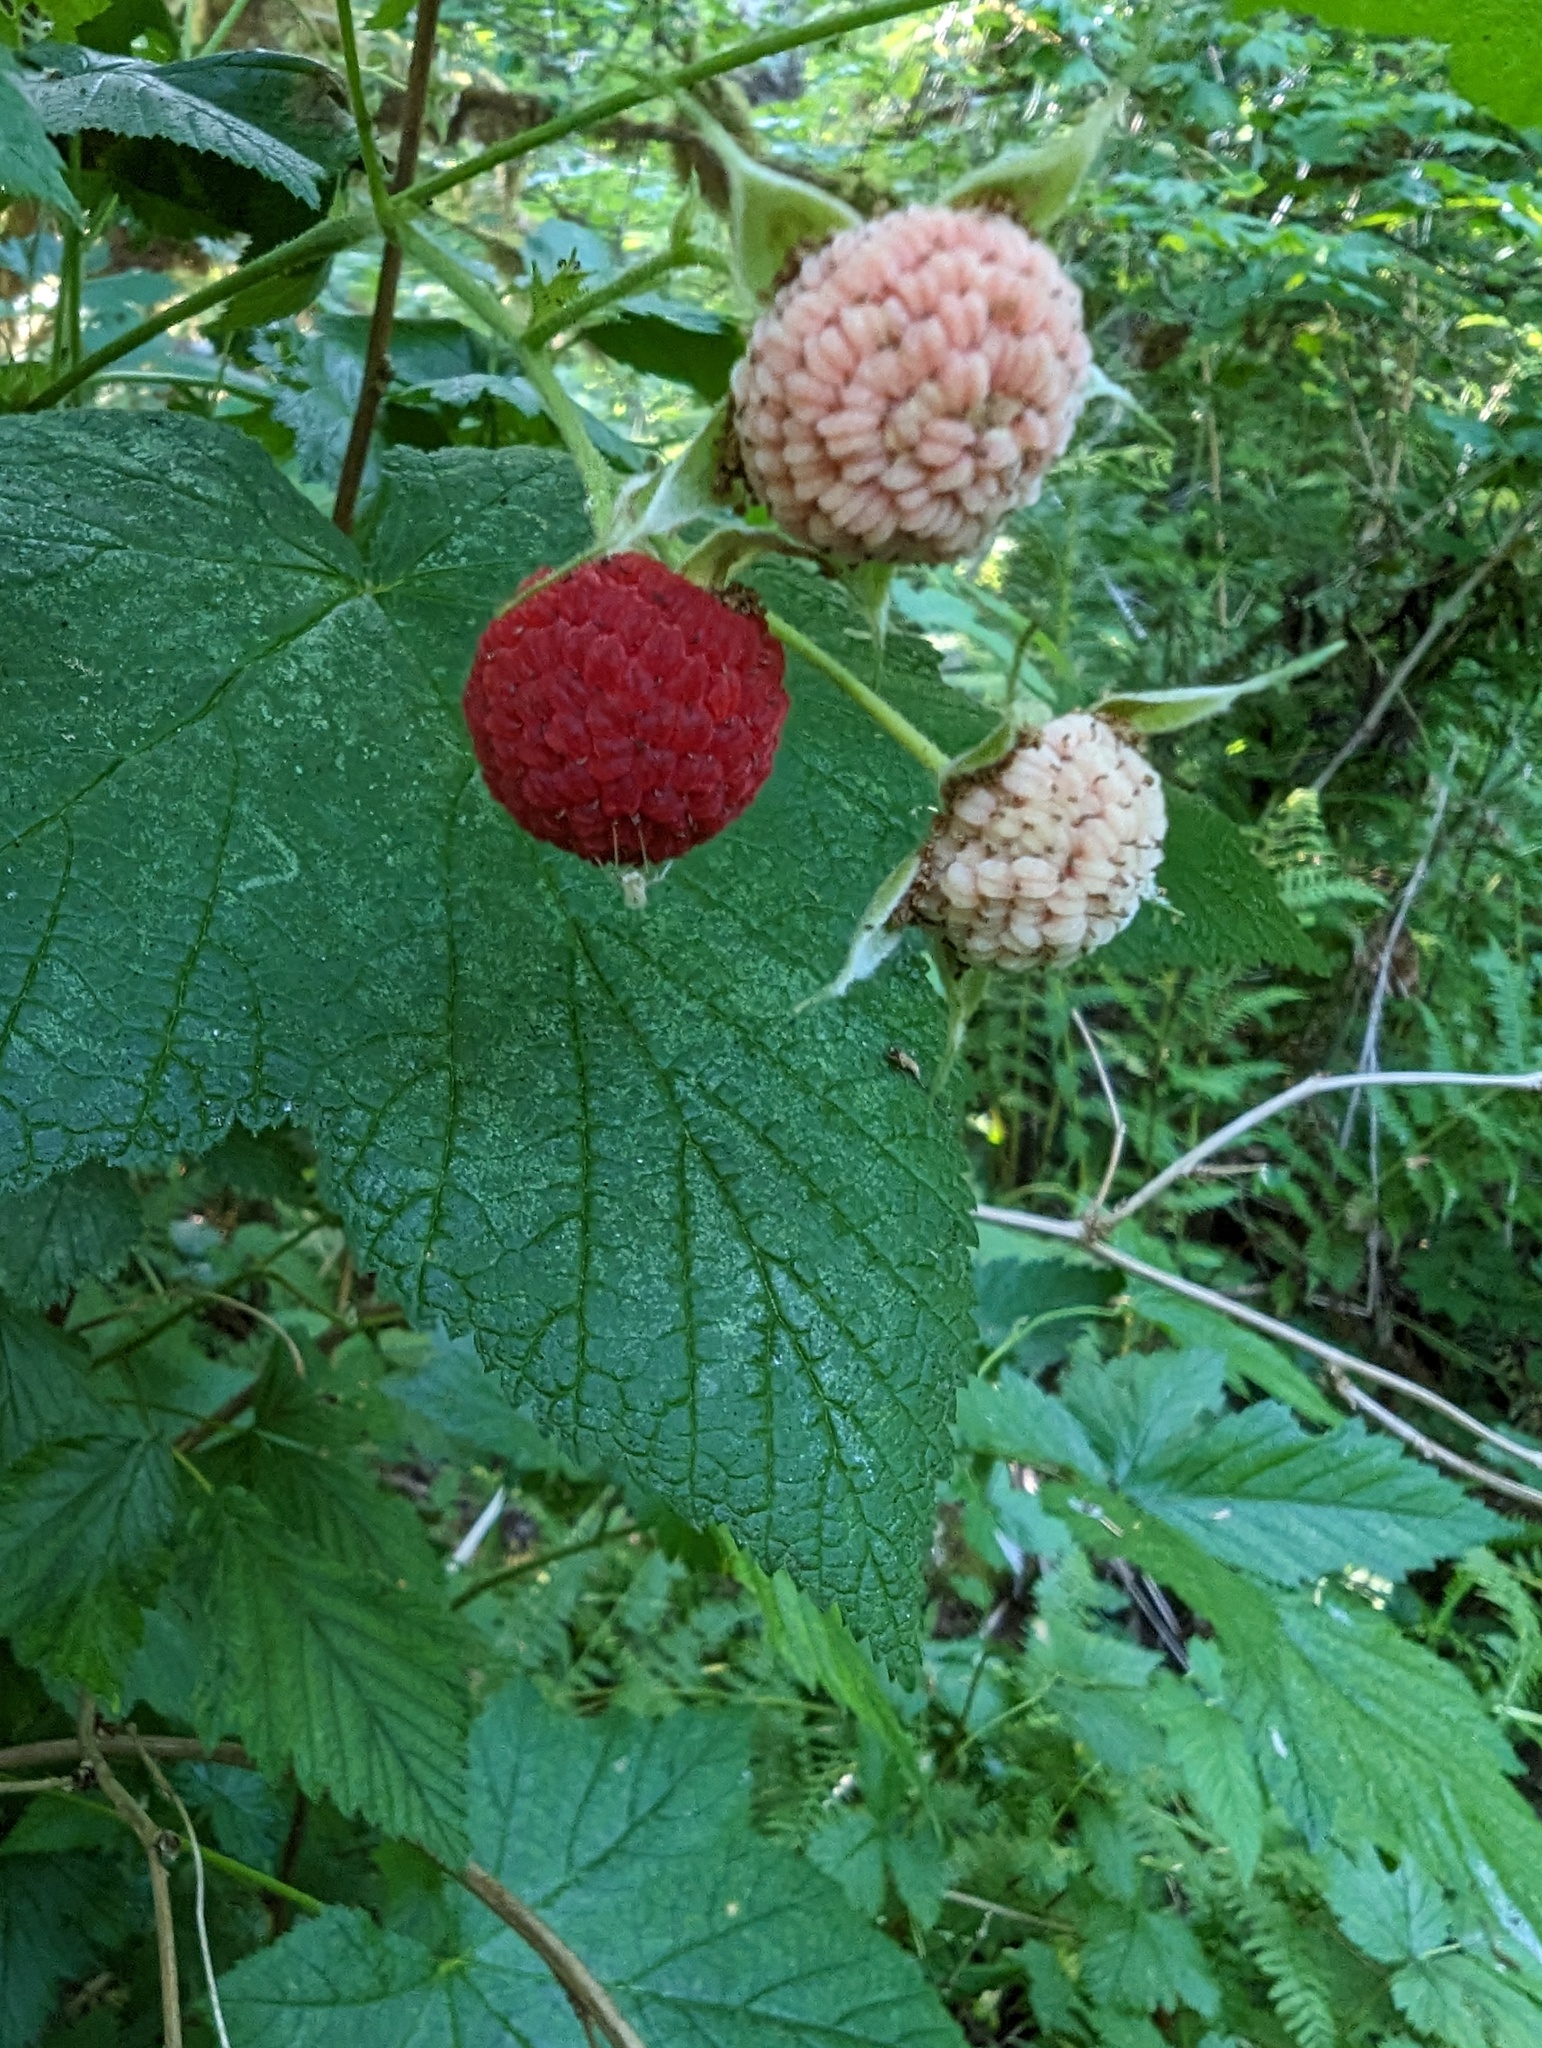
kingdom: Plantae
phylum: Tracheophyta
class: Magnoliopsida
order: Rosales
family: Rosaceae
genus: Rubus
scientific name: Rubus parviflorus
